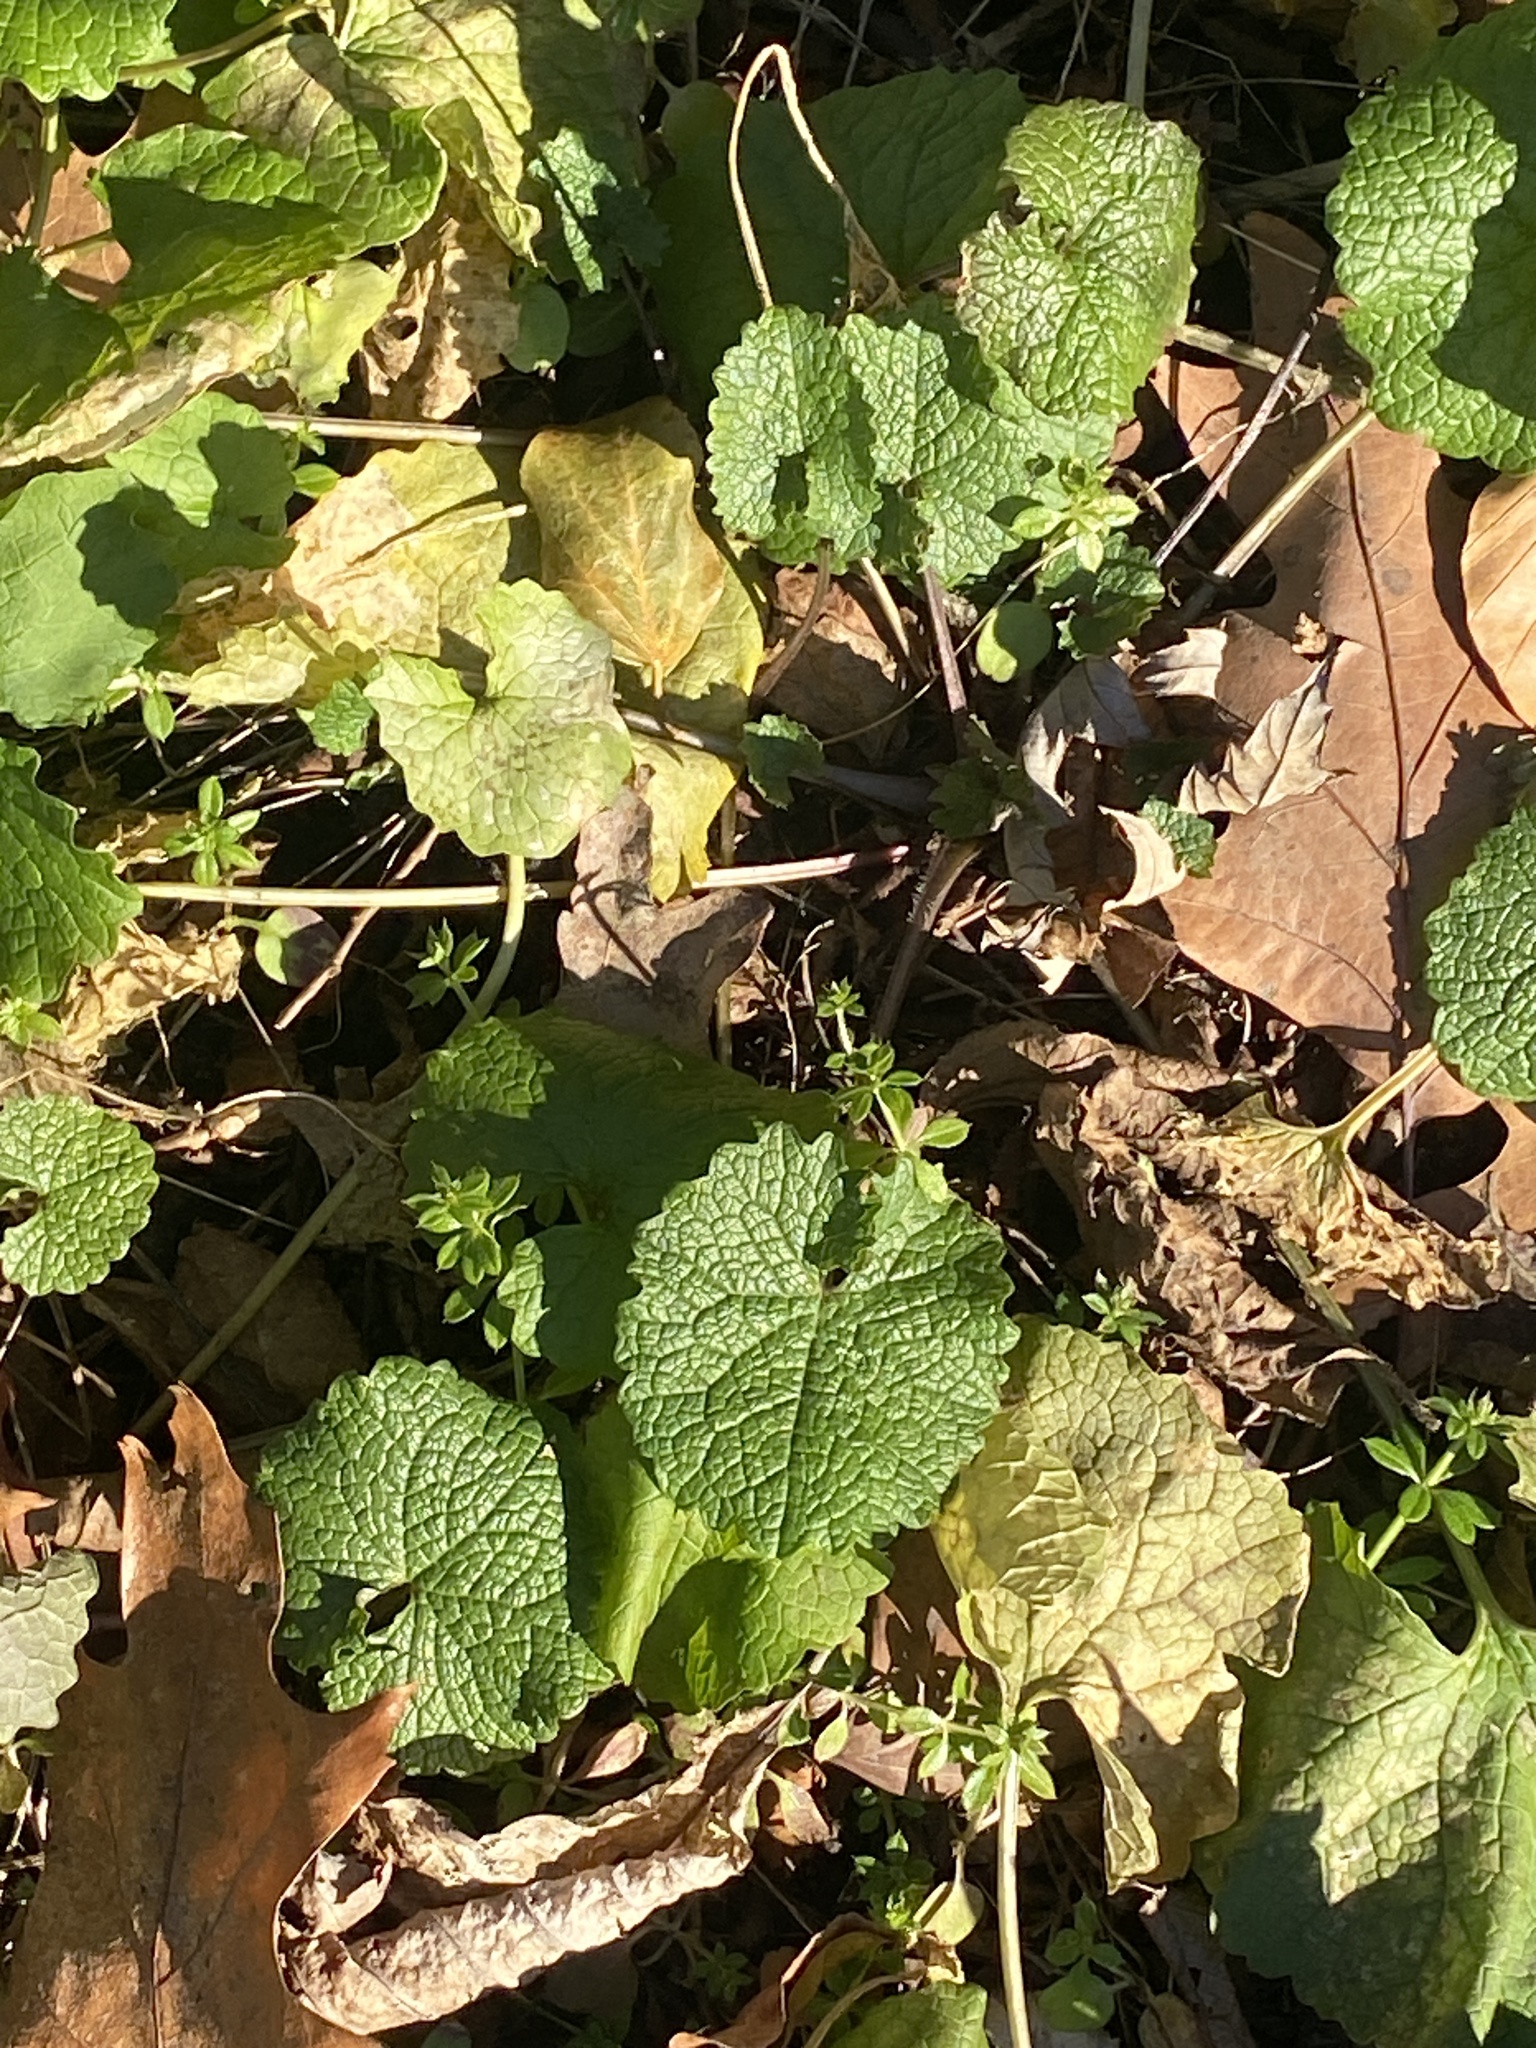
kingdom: Plantae
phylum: Tracheophyta
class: Magnoliopsida
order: Brassicales
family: Brassicaceae
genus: Alliaria
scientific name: Alliaria petiolata
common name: Garlic mustard
